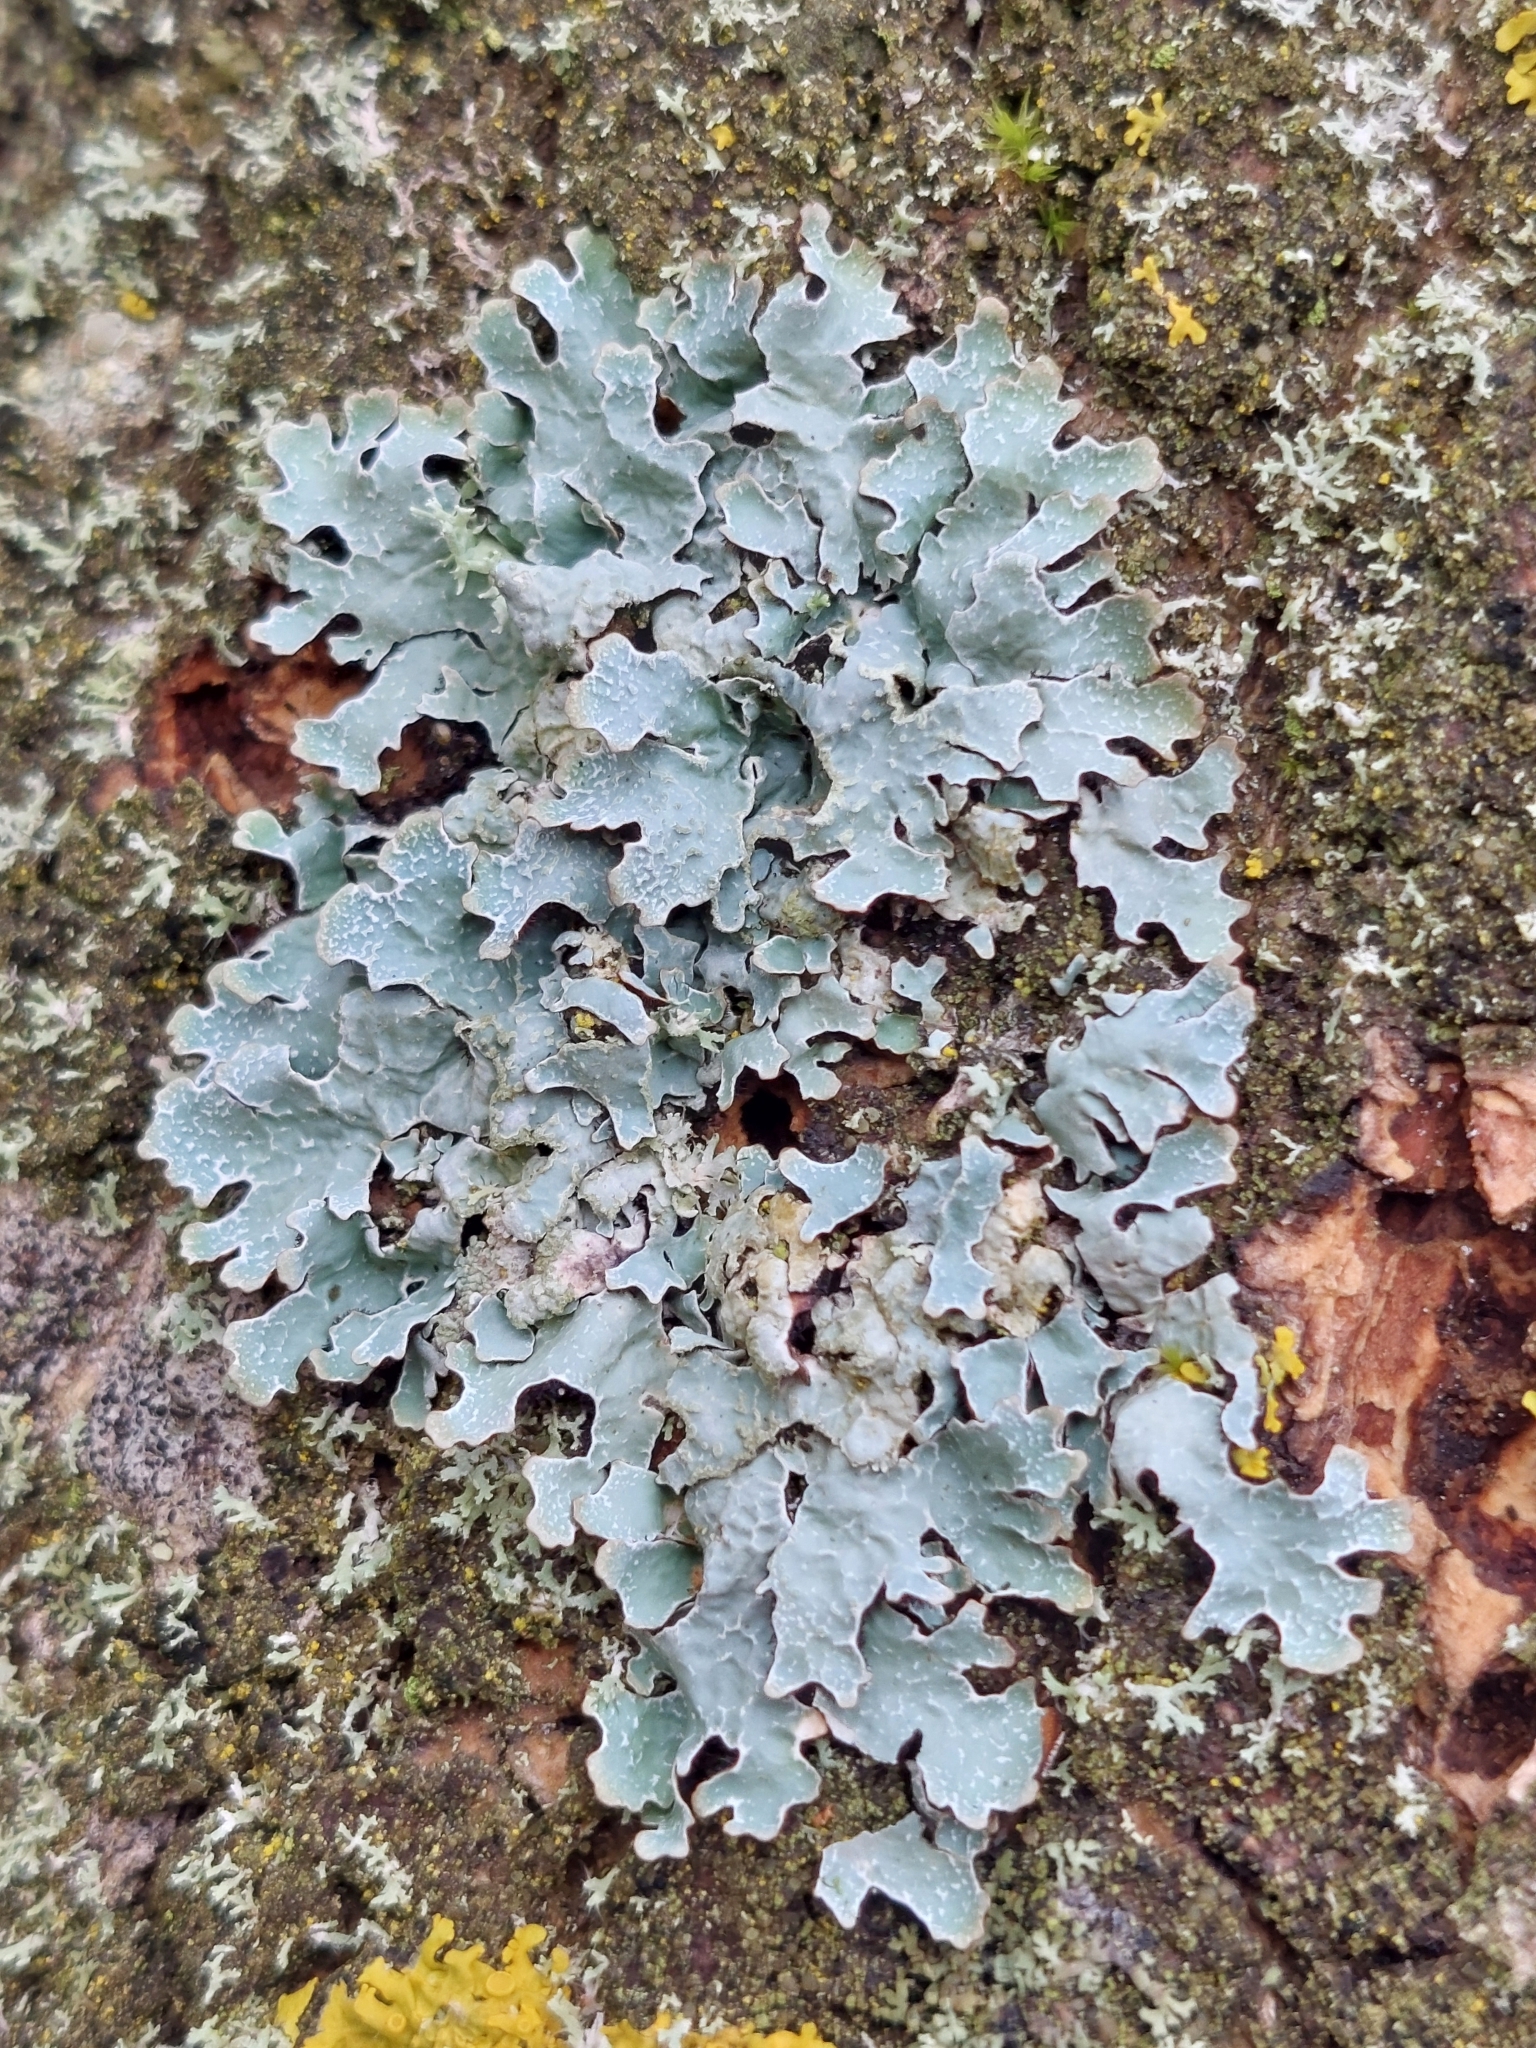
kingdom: Fungi
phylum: Ascomycota
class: Lecanoromycetes
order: Lecanorales
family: Parmeliaceae
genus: Parmelia
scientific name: Parmelia sulcata
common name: Netted shield lichen
